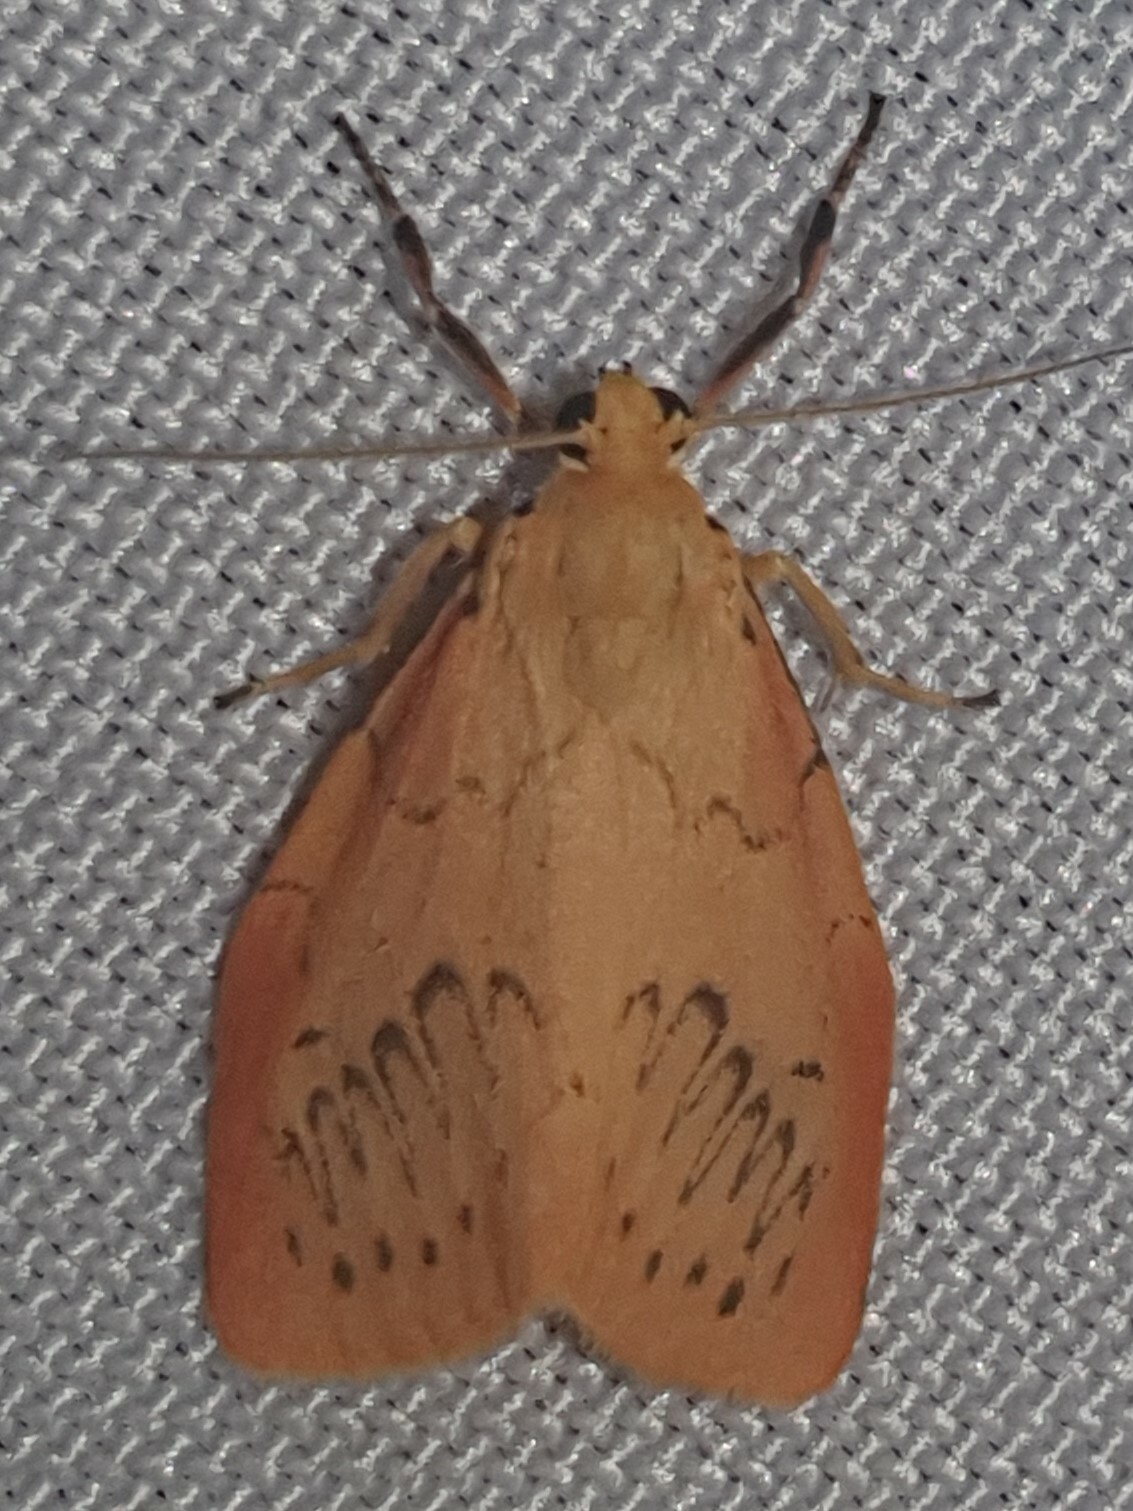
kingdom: Animalia
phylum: Arthropoda
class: Insecta
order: Lepidoptera
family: Erebidae
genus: Miltochrista
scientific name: Miltochrista miniata
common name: Rosy footman
